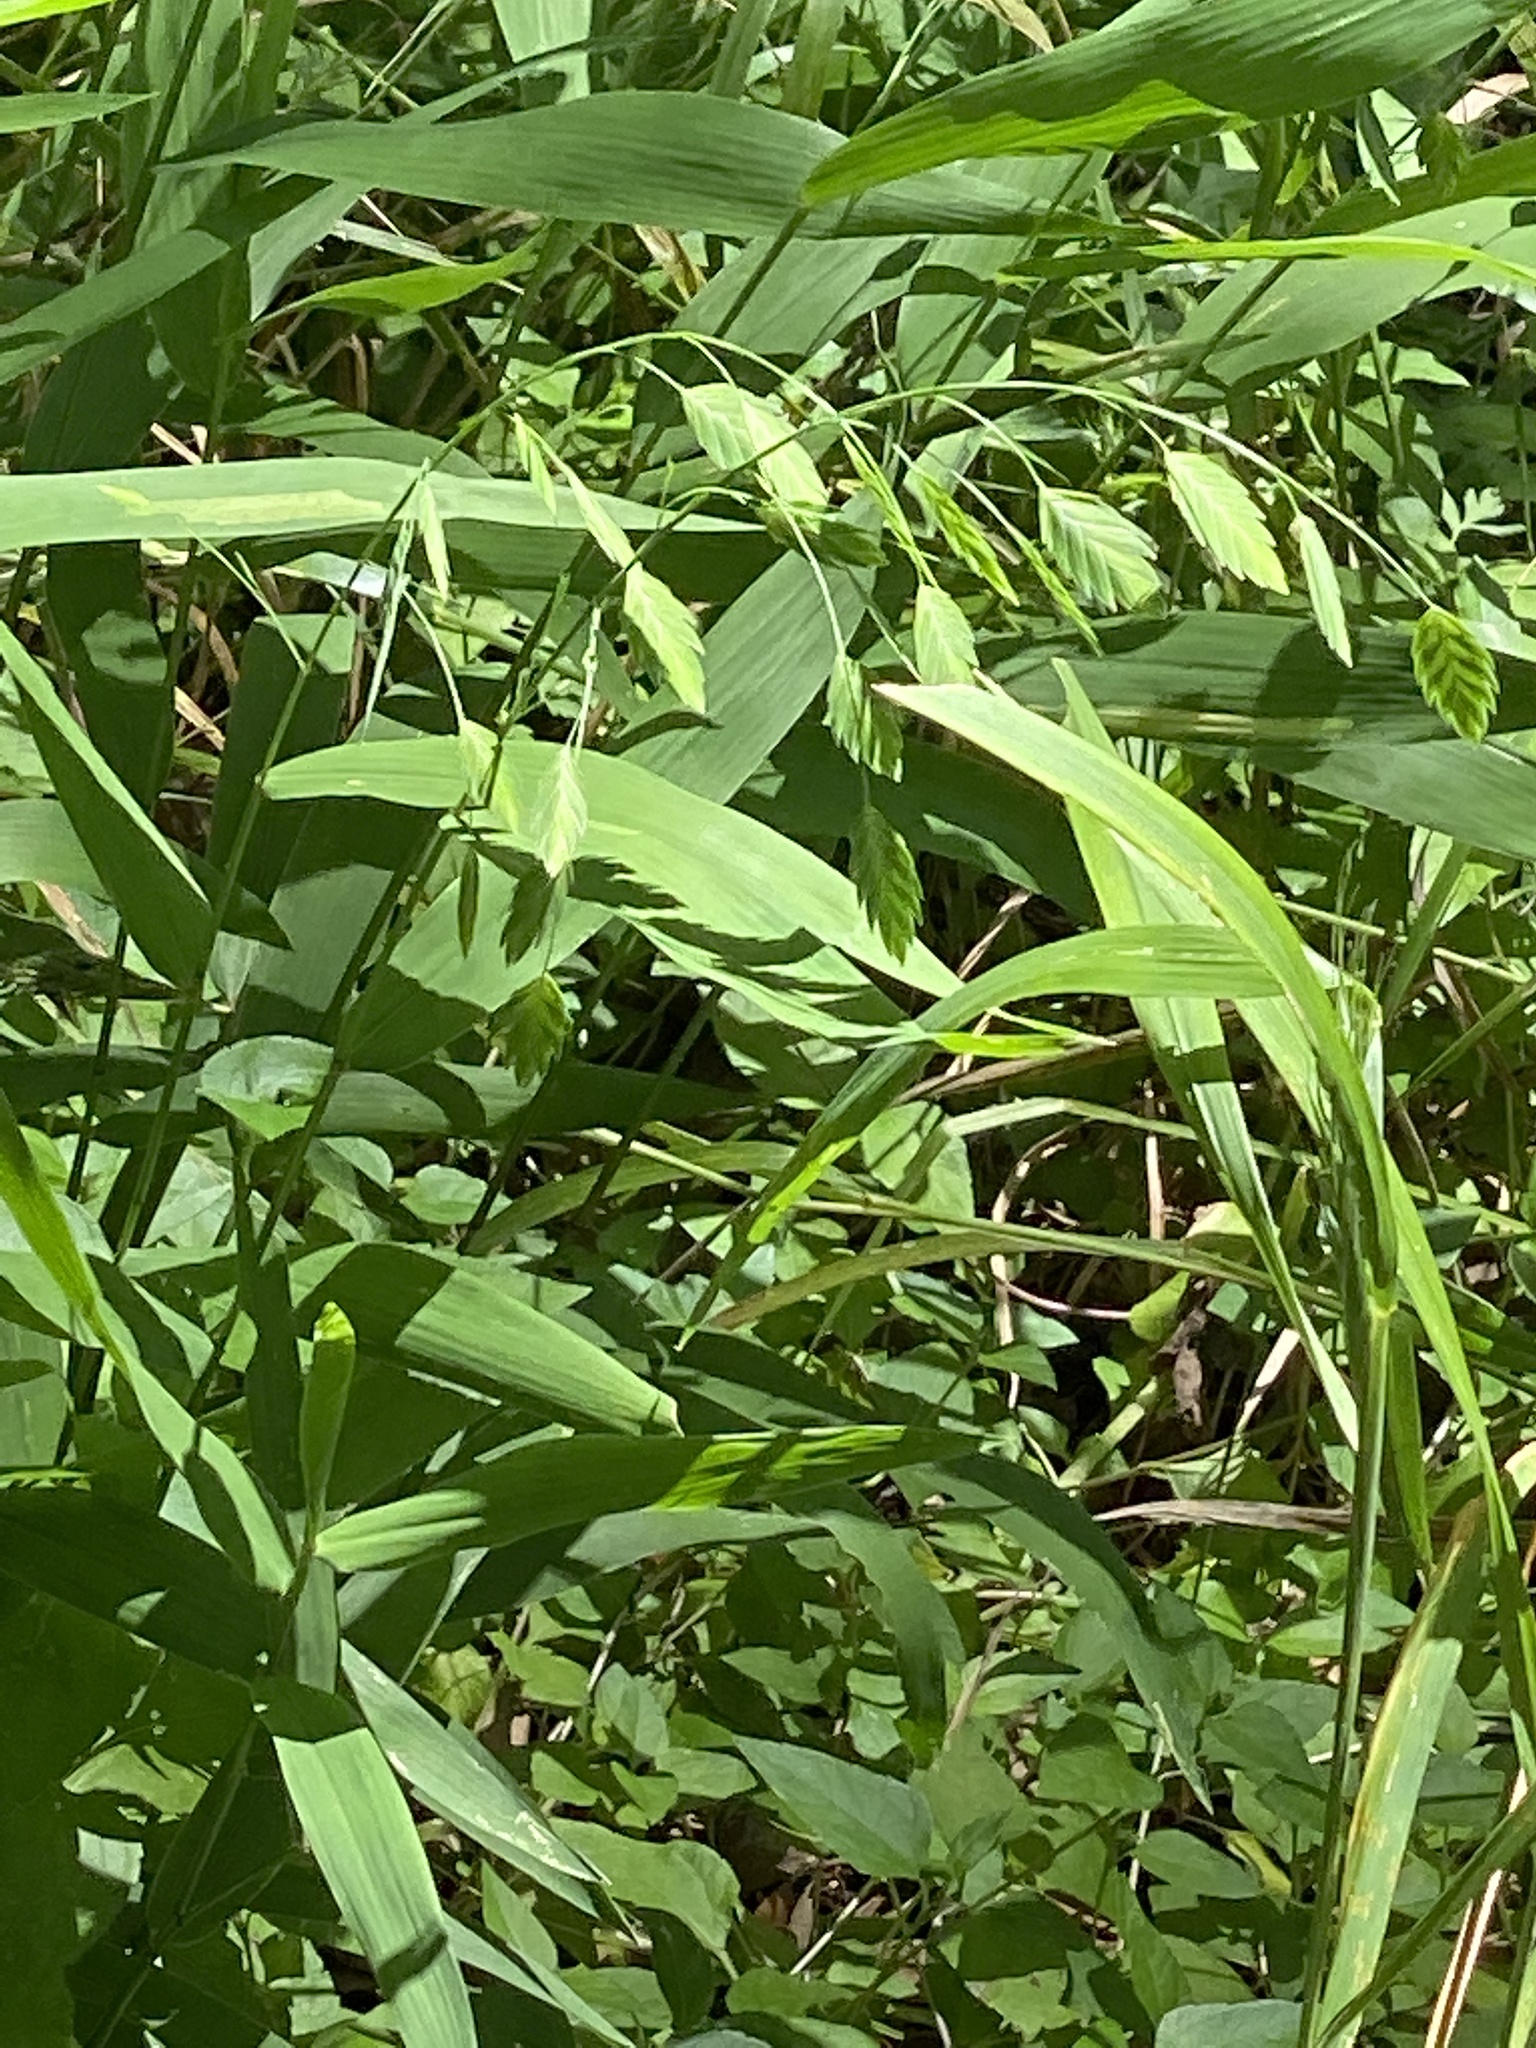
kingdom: Plantae
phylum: Tracheophyta
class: Liliopsida
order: Poales
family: Poaceae
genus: Chasmanthium
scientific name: Chasmanthium latifolium
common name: Broad-leaved chasmanthium
